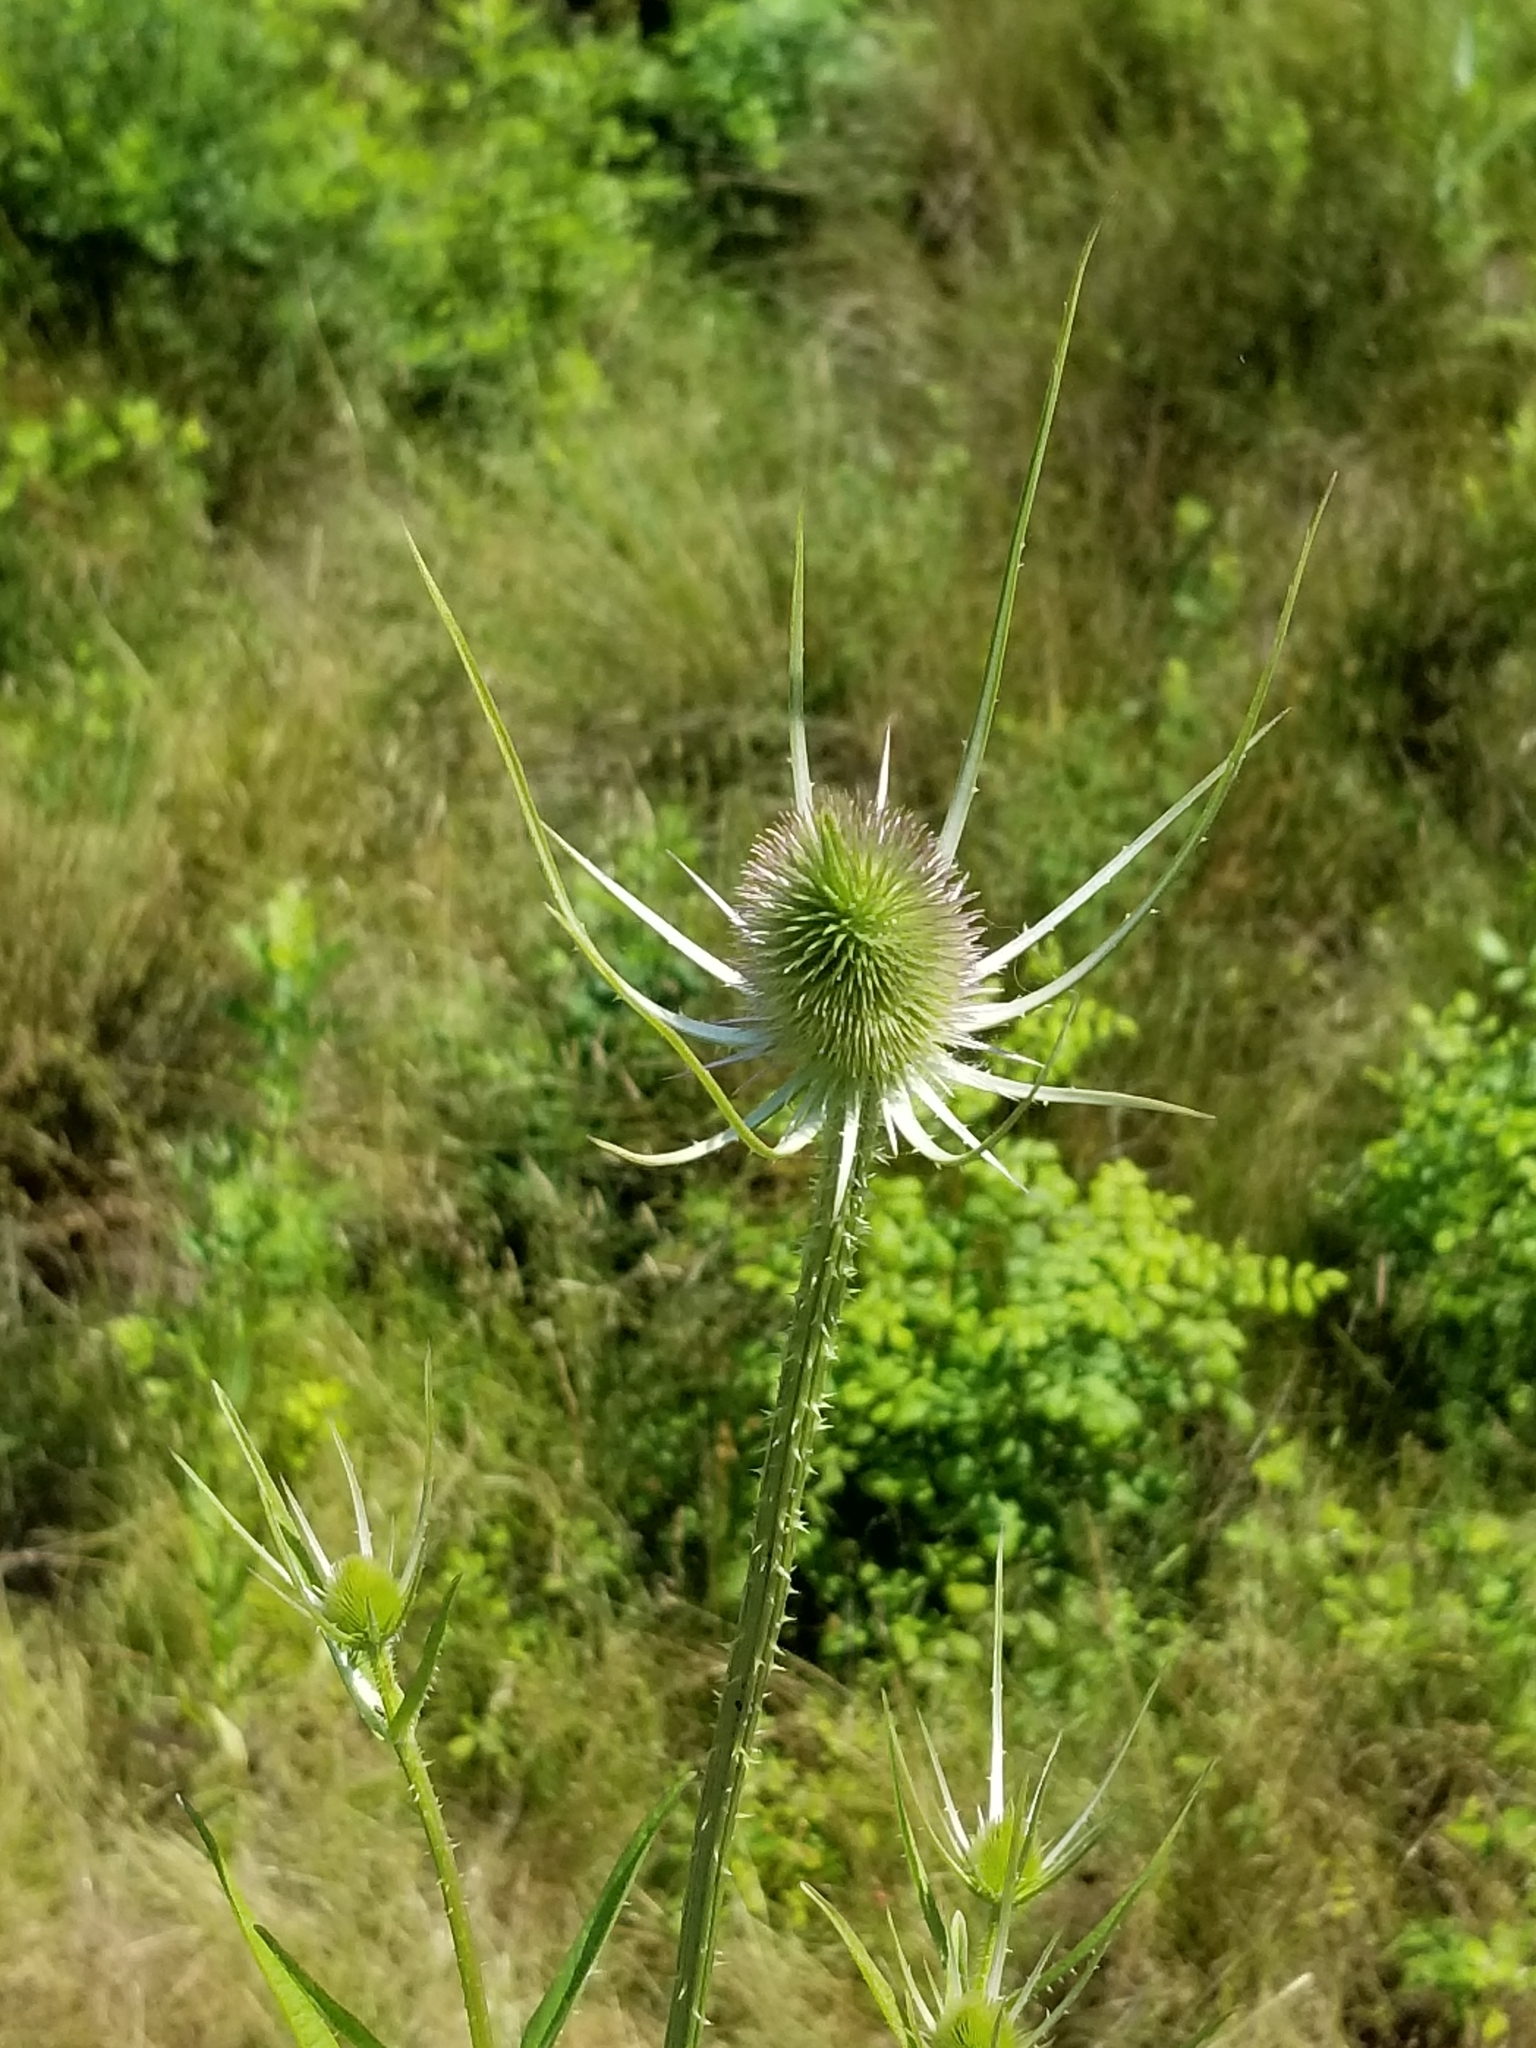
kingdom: Plantae
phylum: Tracheophyta
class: Magnoliopsida
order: Dipsacales
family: Caprifoliaceae
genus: Dipsacus
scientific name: Dipsacus fullonum
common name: Teasel
